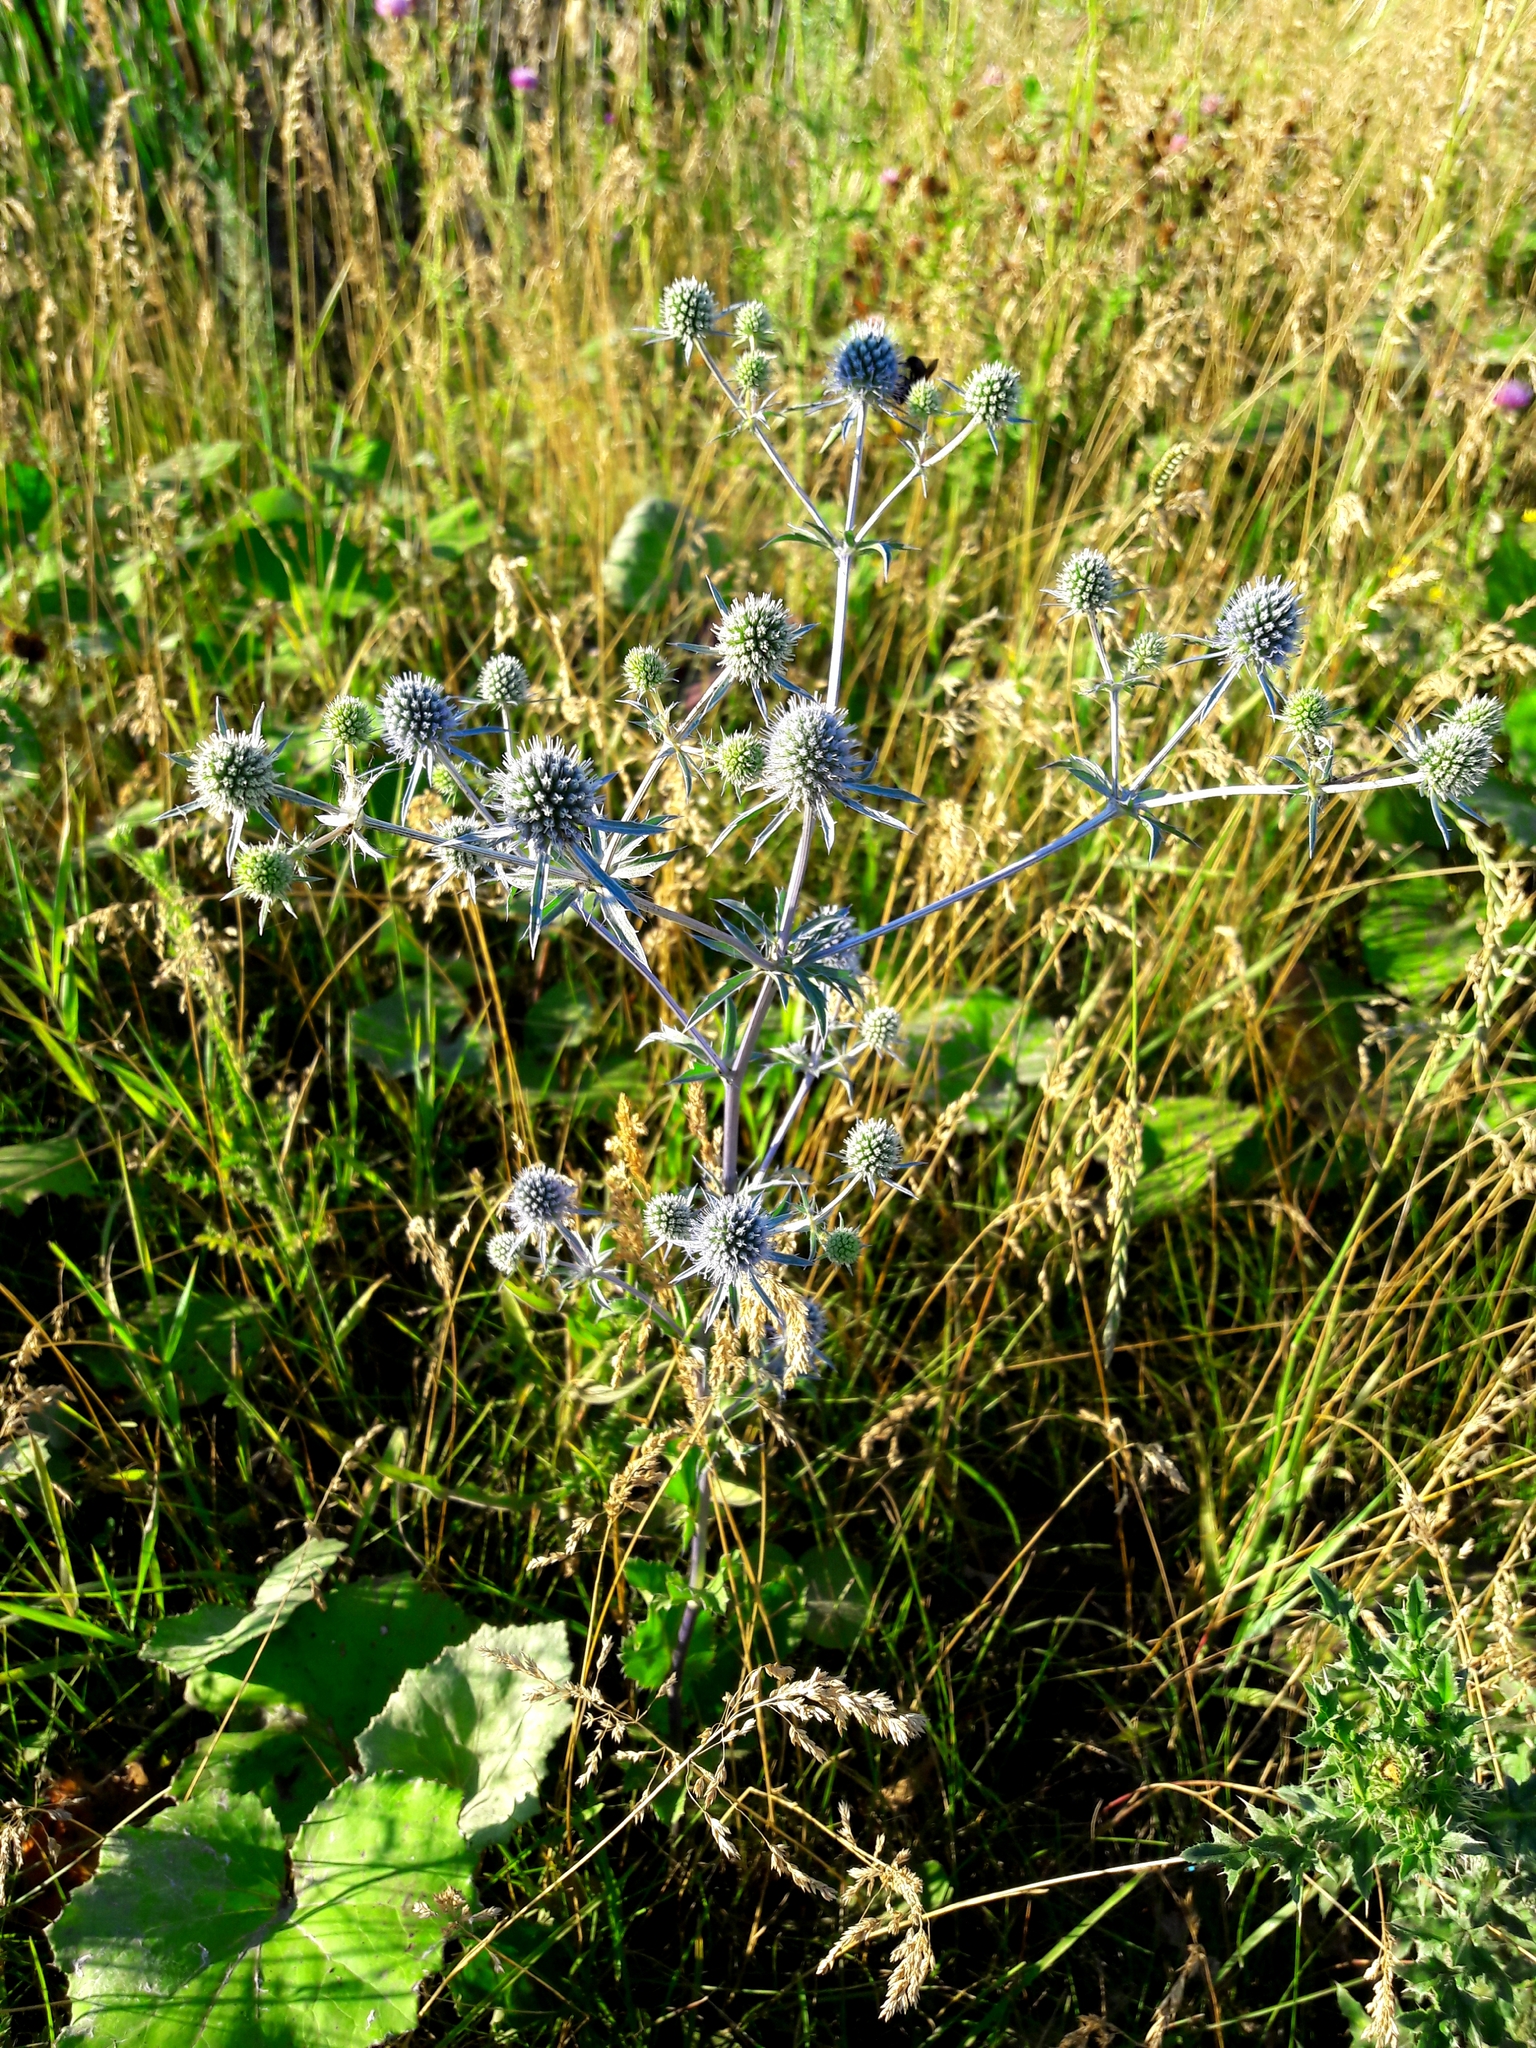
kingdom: Plantae
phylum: Tracheophyta
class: Magnoliopsida
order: Apiales
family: Apiaceae
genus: Eryngium
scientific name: Eryngium planum
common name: Blue eryngo
